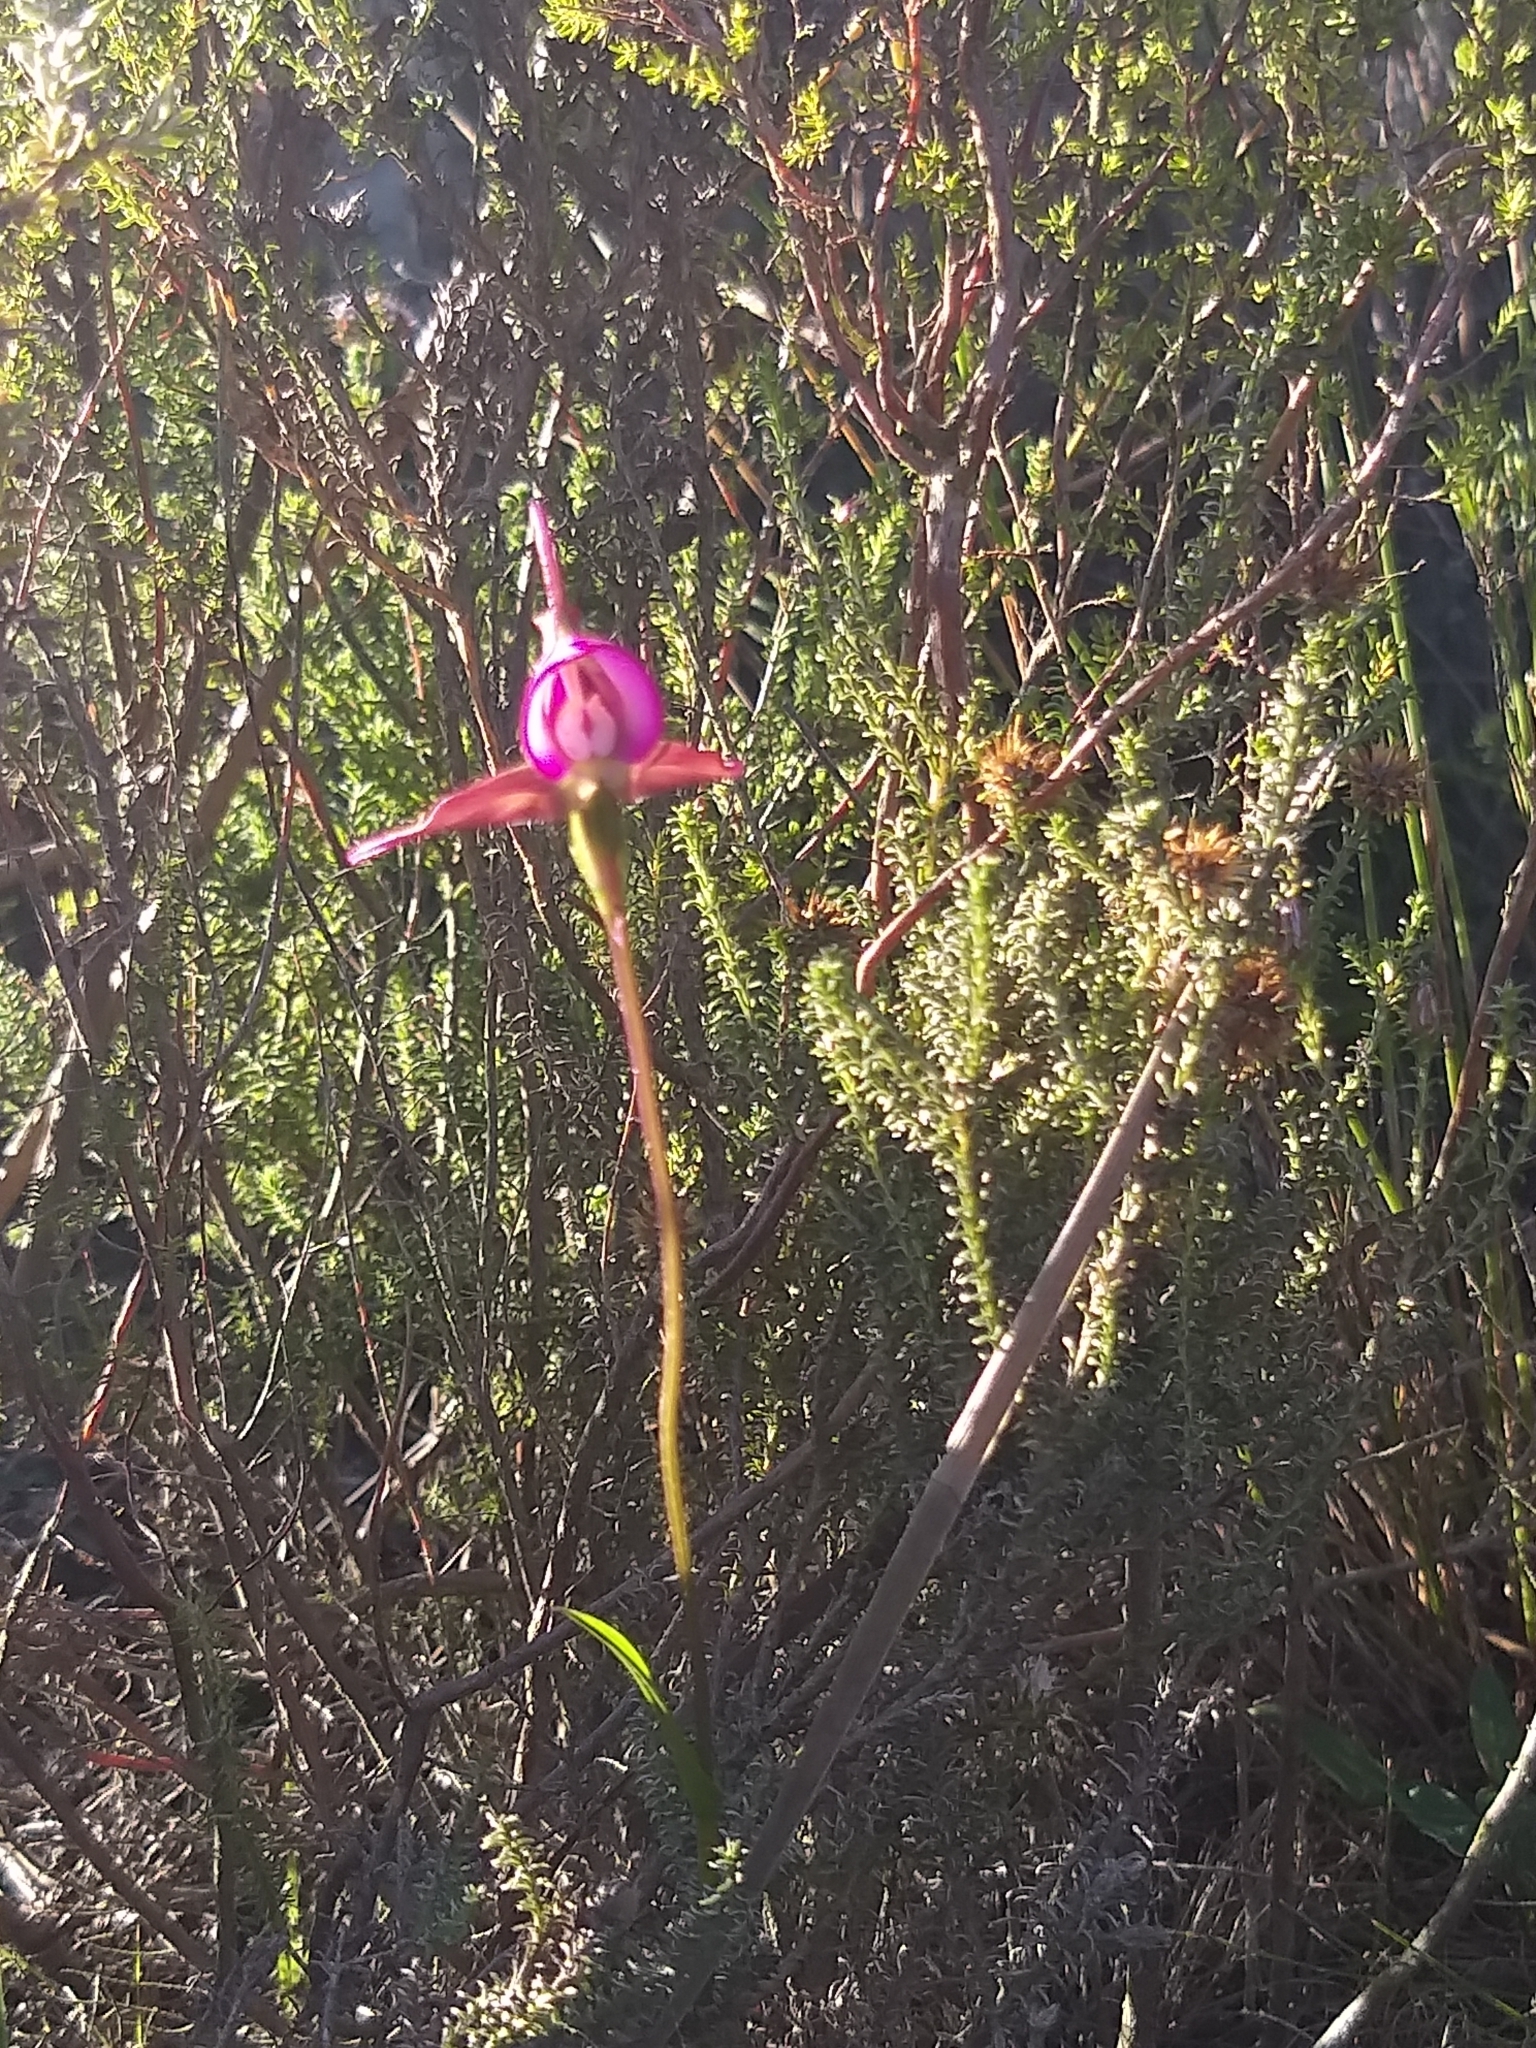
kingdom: Plantae
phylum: Tracheophyta
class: Liliopsida
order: Asparagales
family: Orchidaceae
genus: Disperis
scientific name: Disperis capensis
